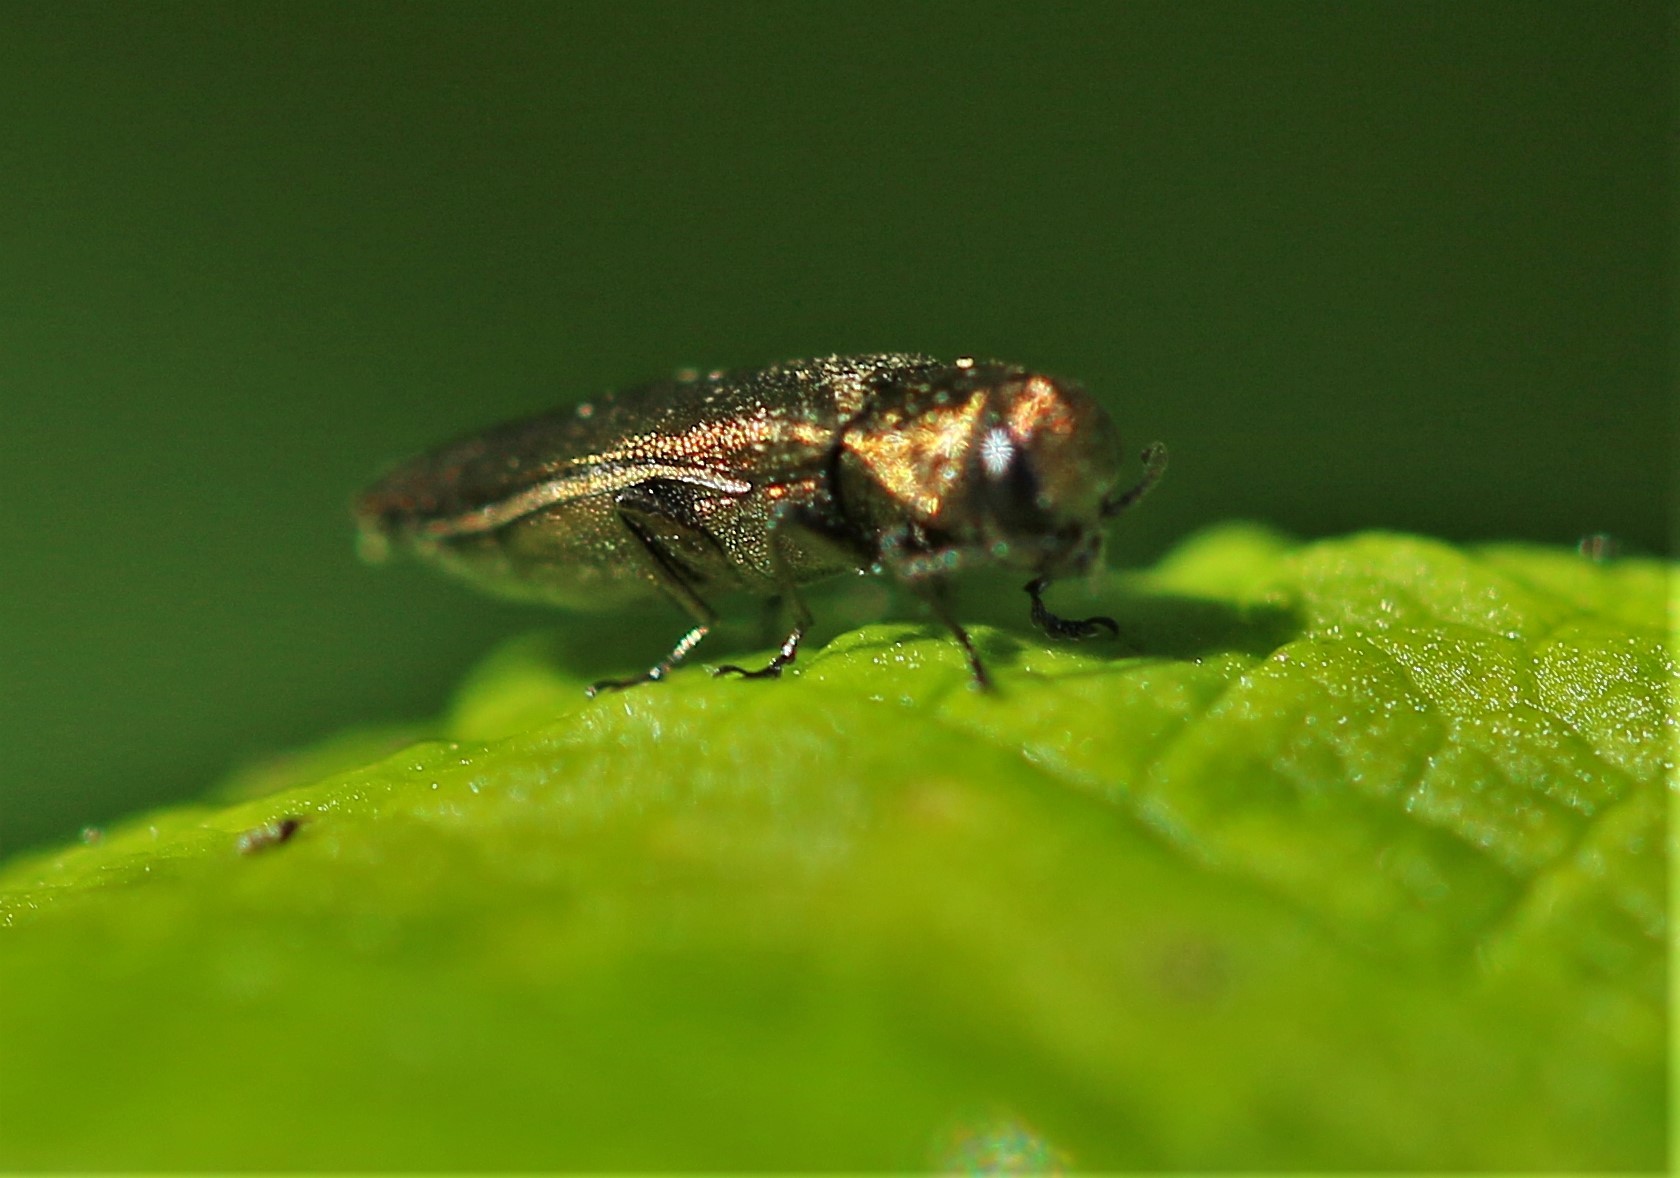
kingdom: Animalia
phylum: Arthropoda
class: Insecta
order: Coleoptera
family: Buprestidae
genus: Agrilus
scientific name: Agrilus cuprescens
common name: Rose stem girdler
